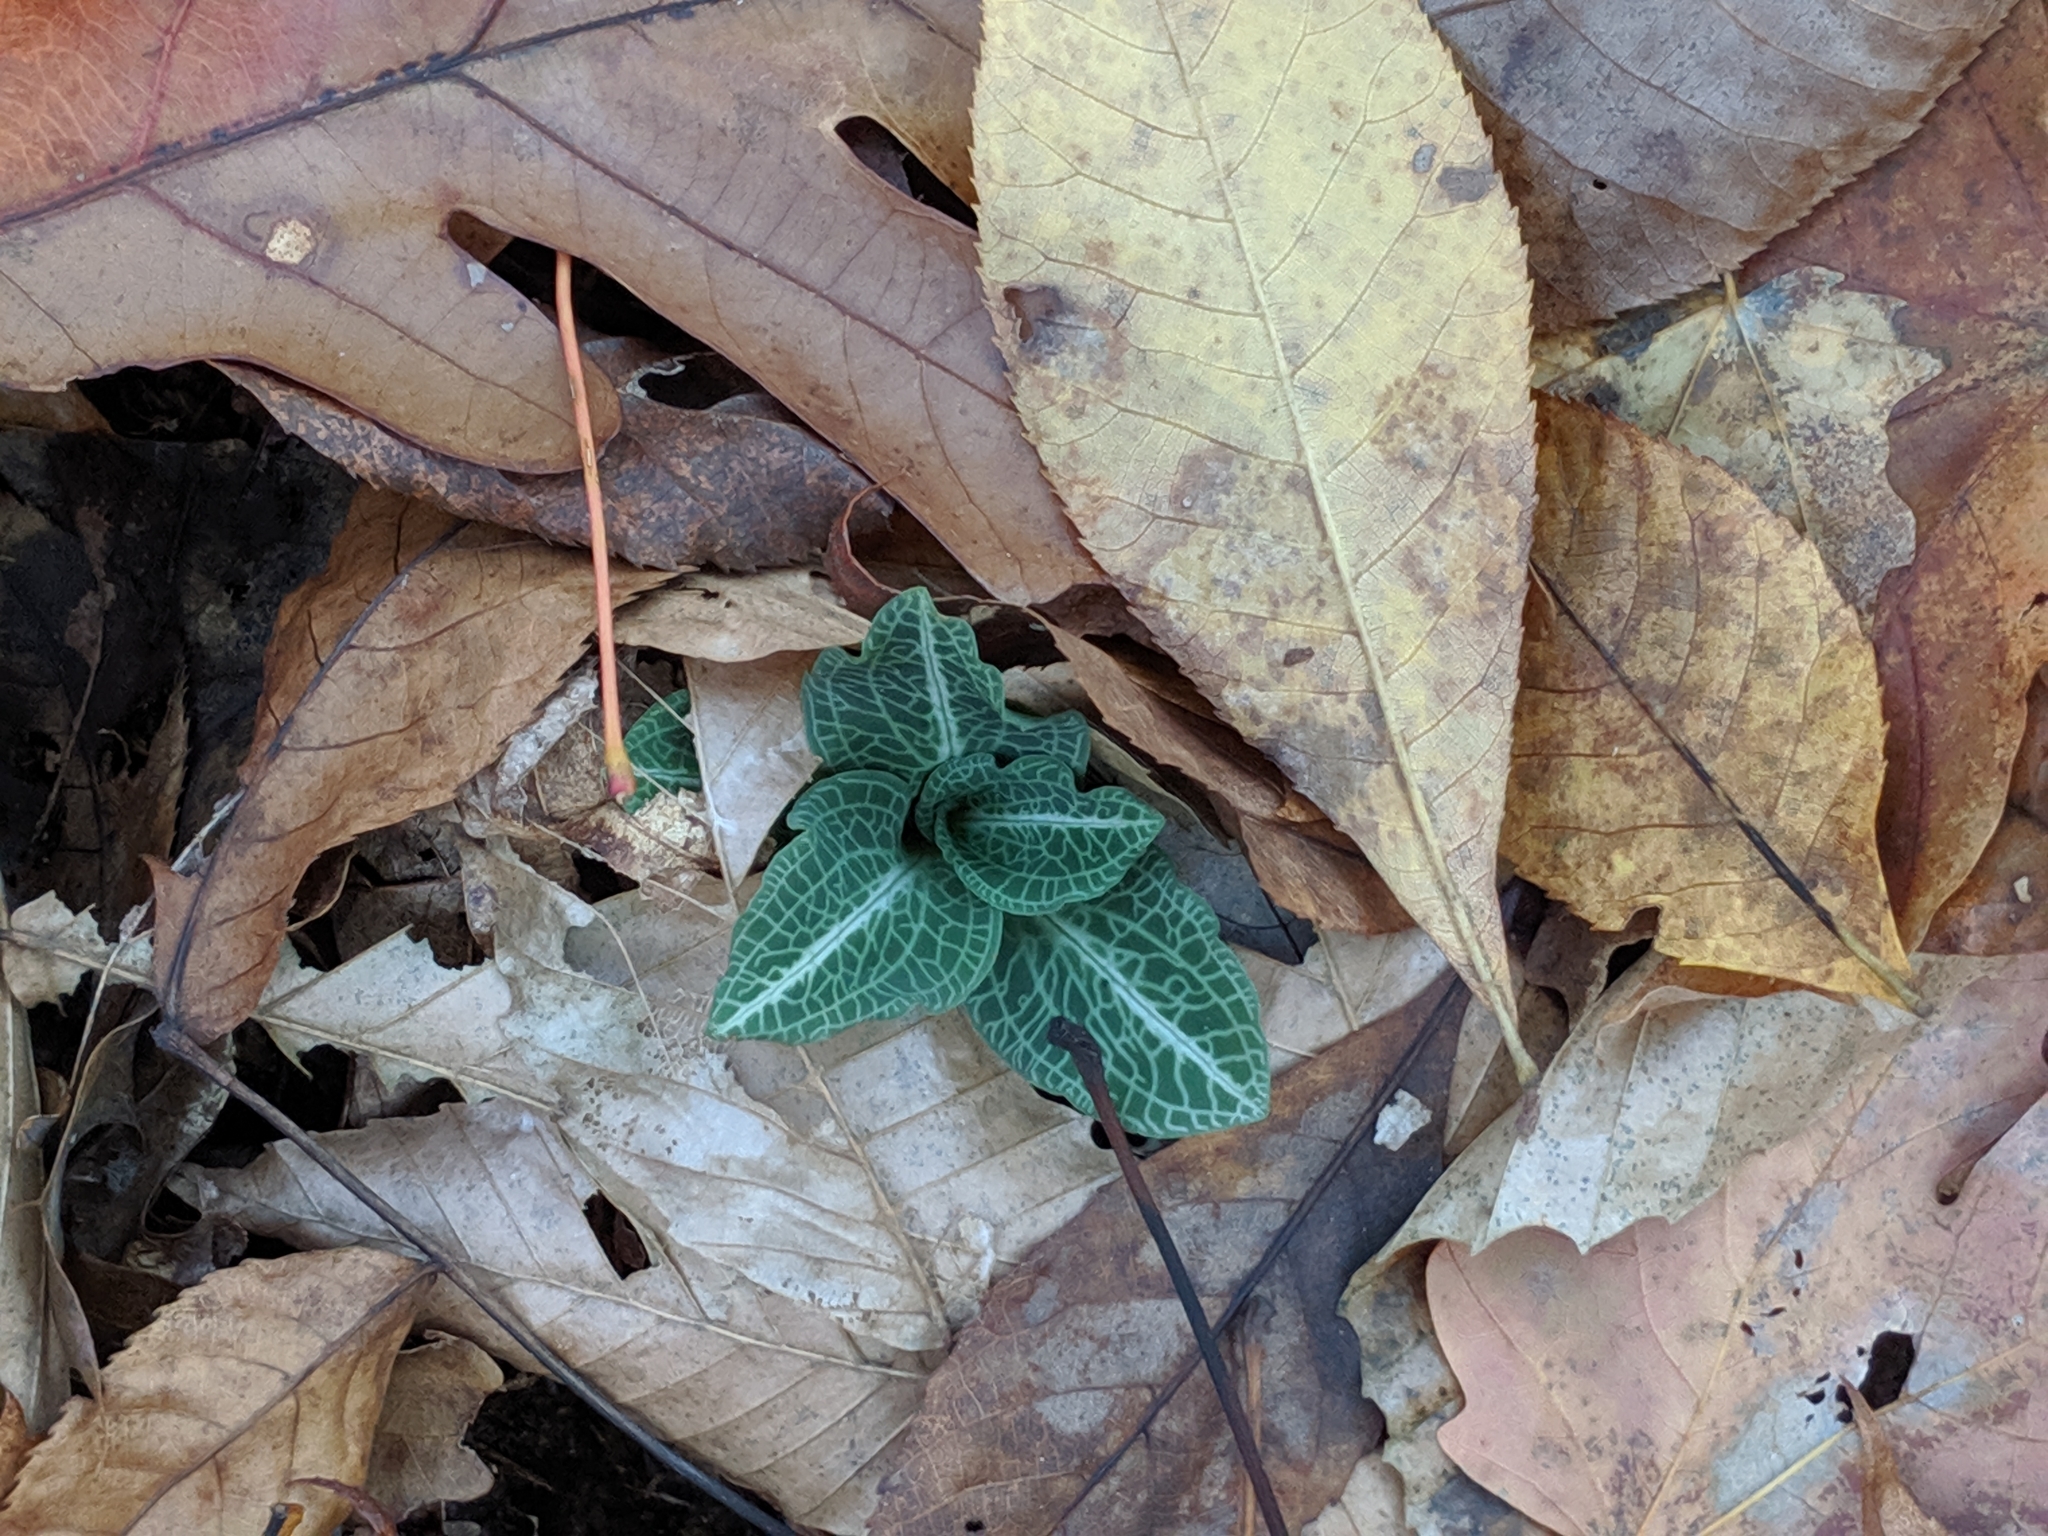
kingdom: Plantae
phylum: Tracheophyta
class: Liliopsida
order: Asparagales
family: Orchidaceae
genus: Goodyera
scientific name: Goodyera pubescens
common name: Downy rattlesnake-plantain
